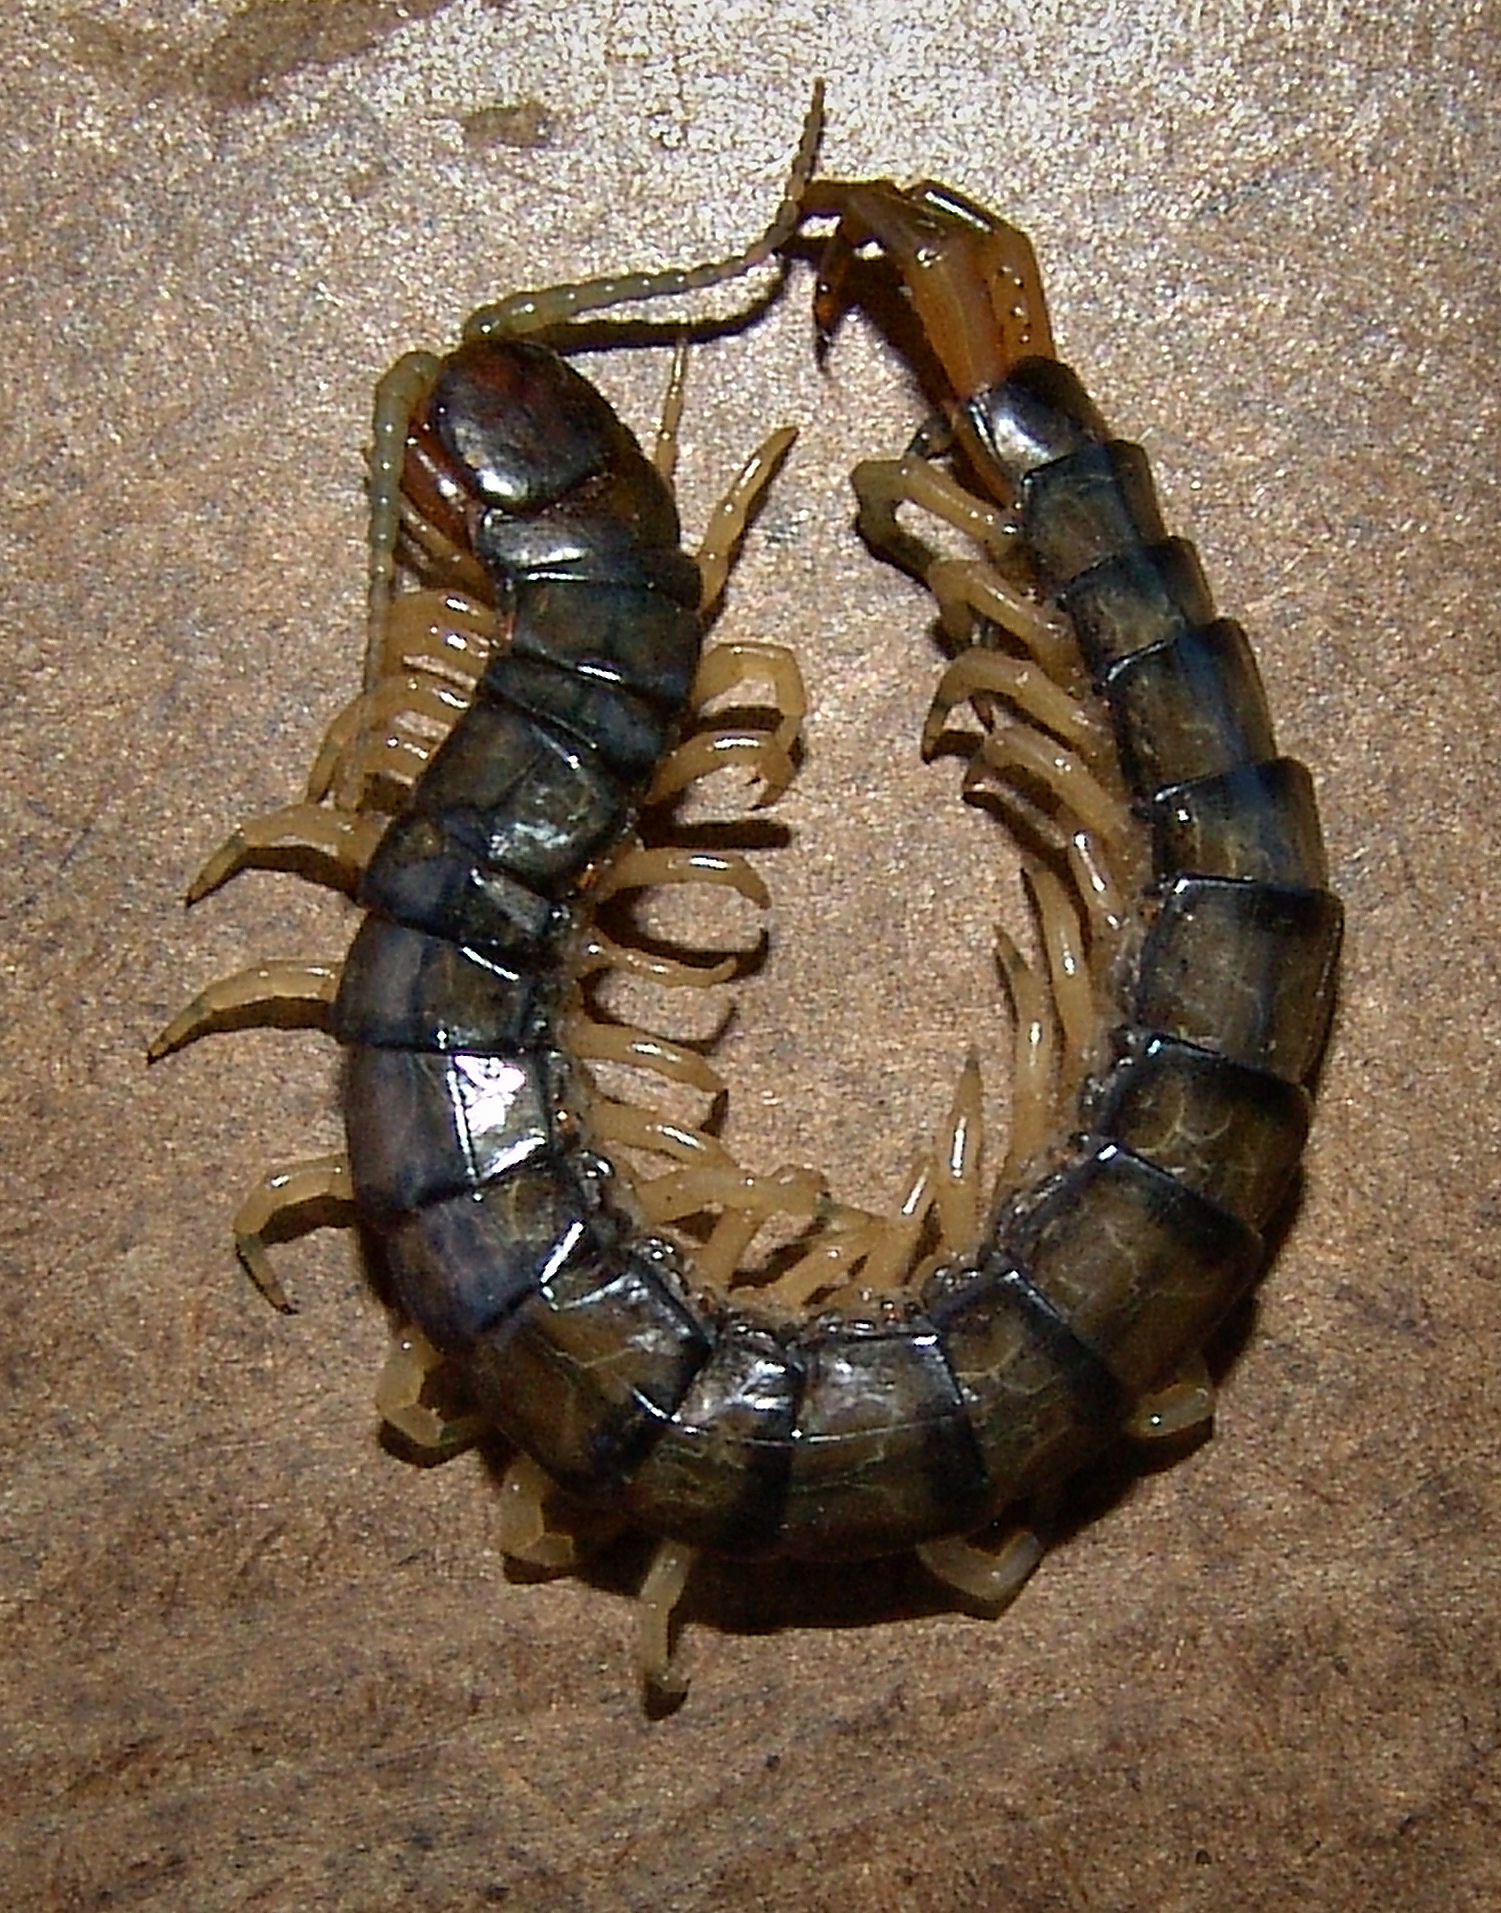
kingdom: Animalia
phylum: Arthropoda
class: Chilopoda
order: Scolopendromorpha
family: Scolopendridae
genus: Hemiscolopendra
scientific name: Hemiscolopendra marginata
